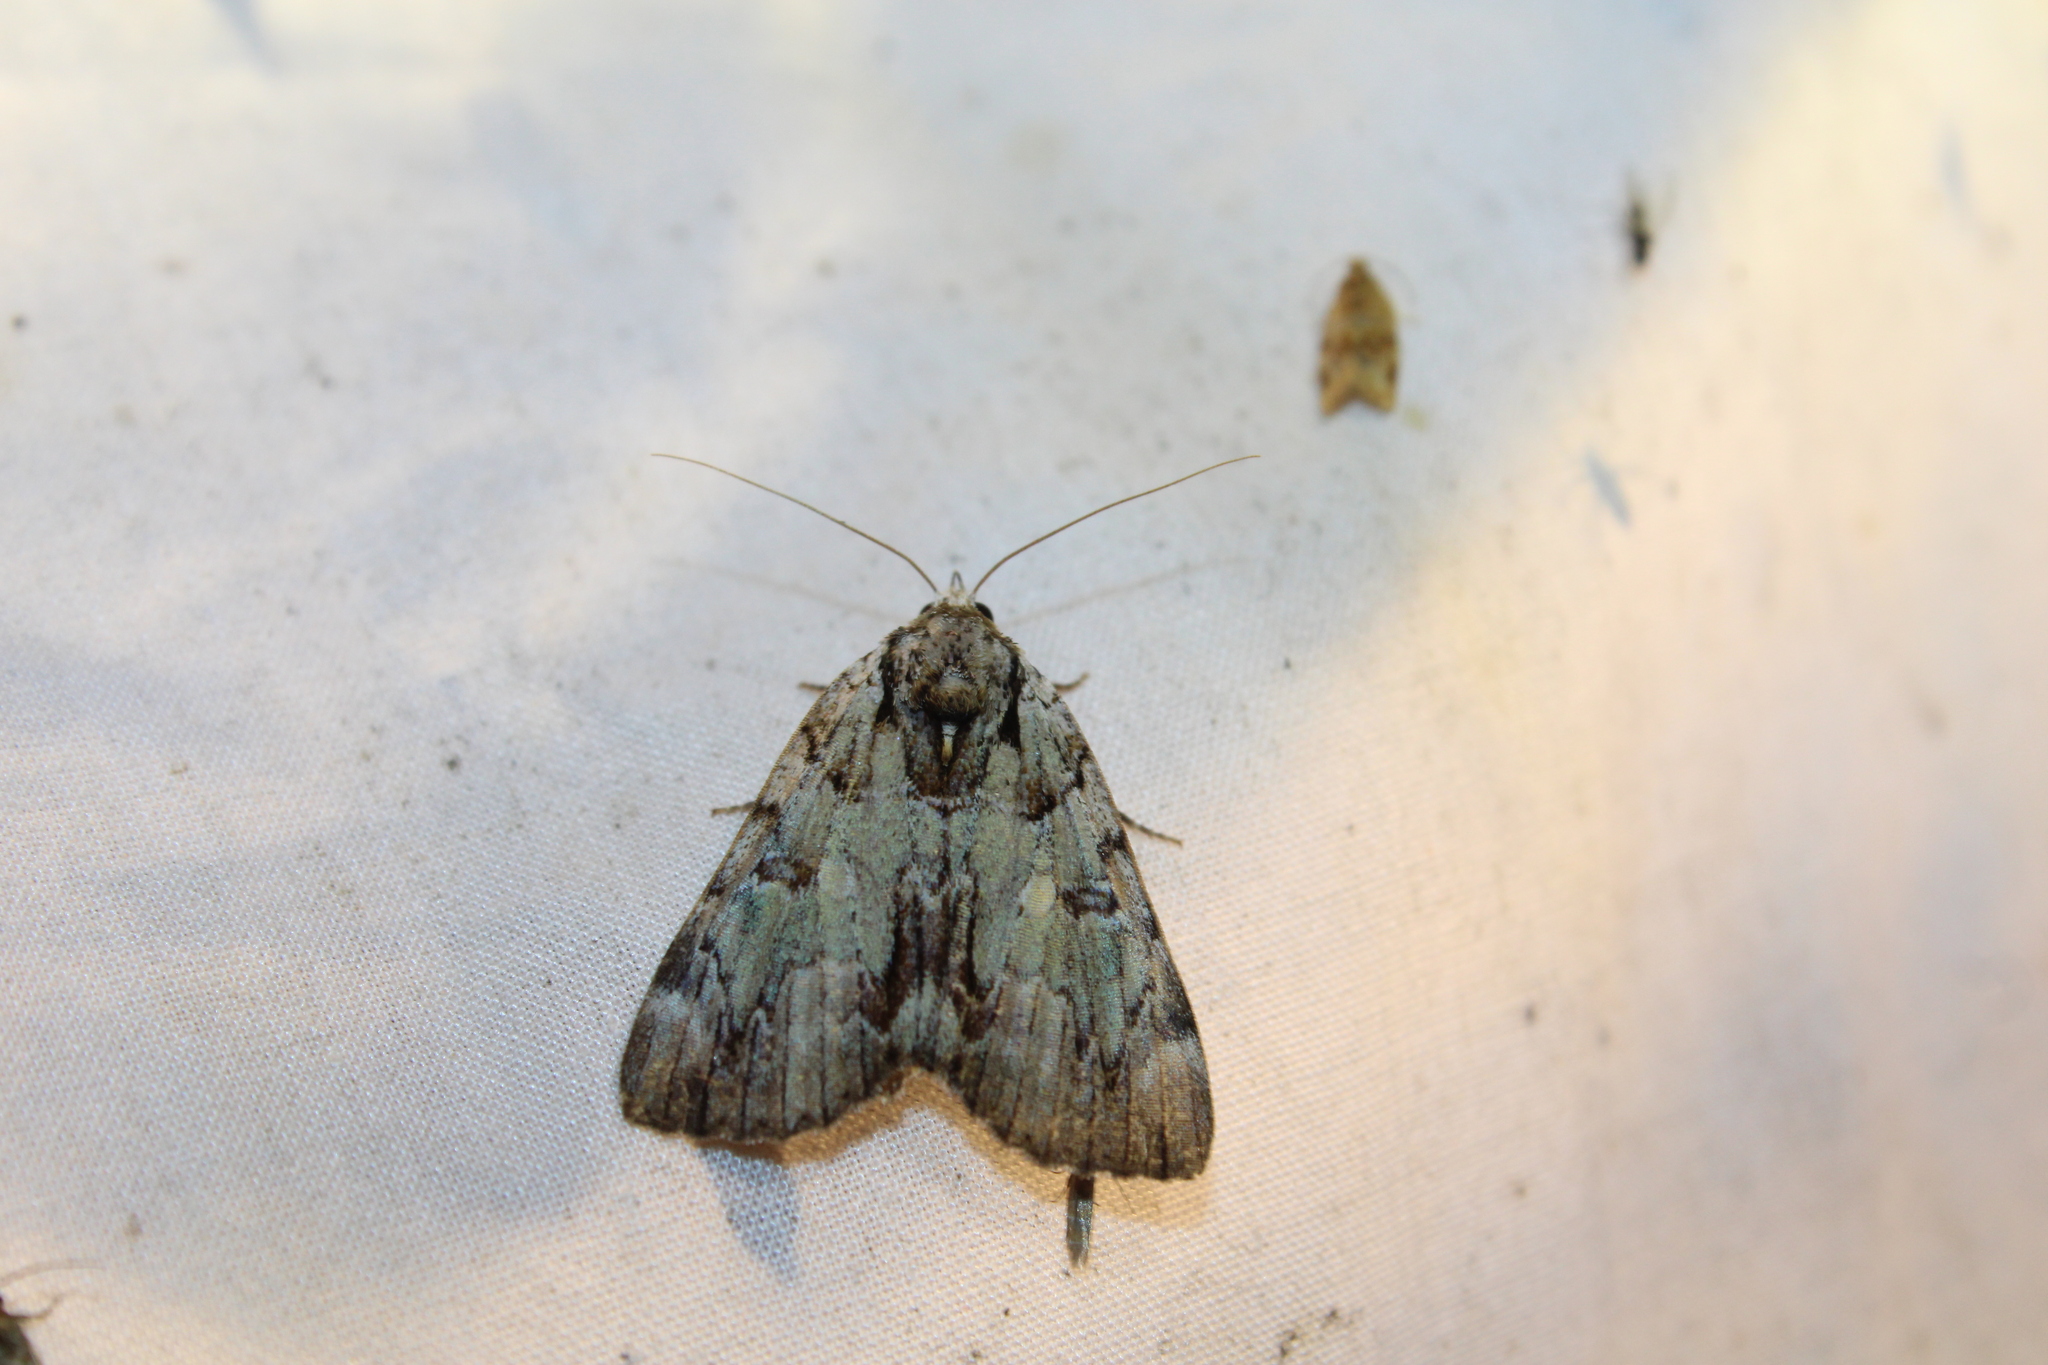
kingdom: Animalia
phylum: Arthropoda
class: Insecta
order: Lepidoptera
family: Erebidae
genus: Catocala
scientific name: Catocala praeclara
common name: Praeclara underwing
